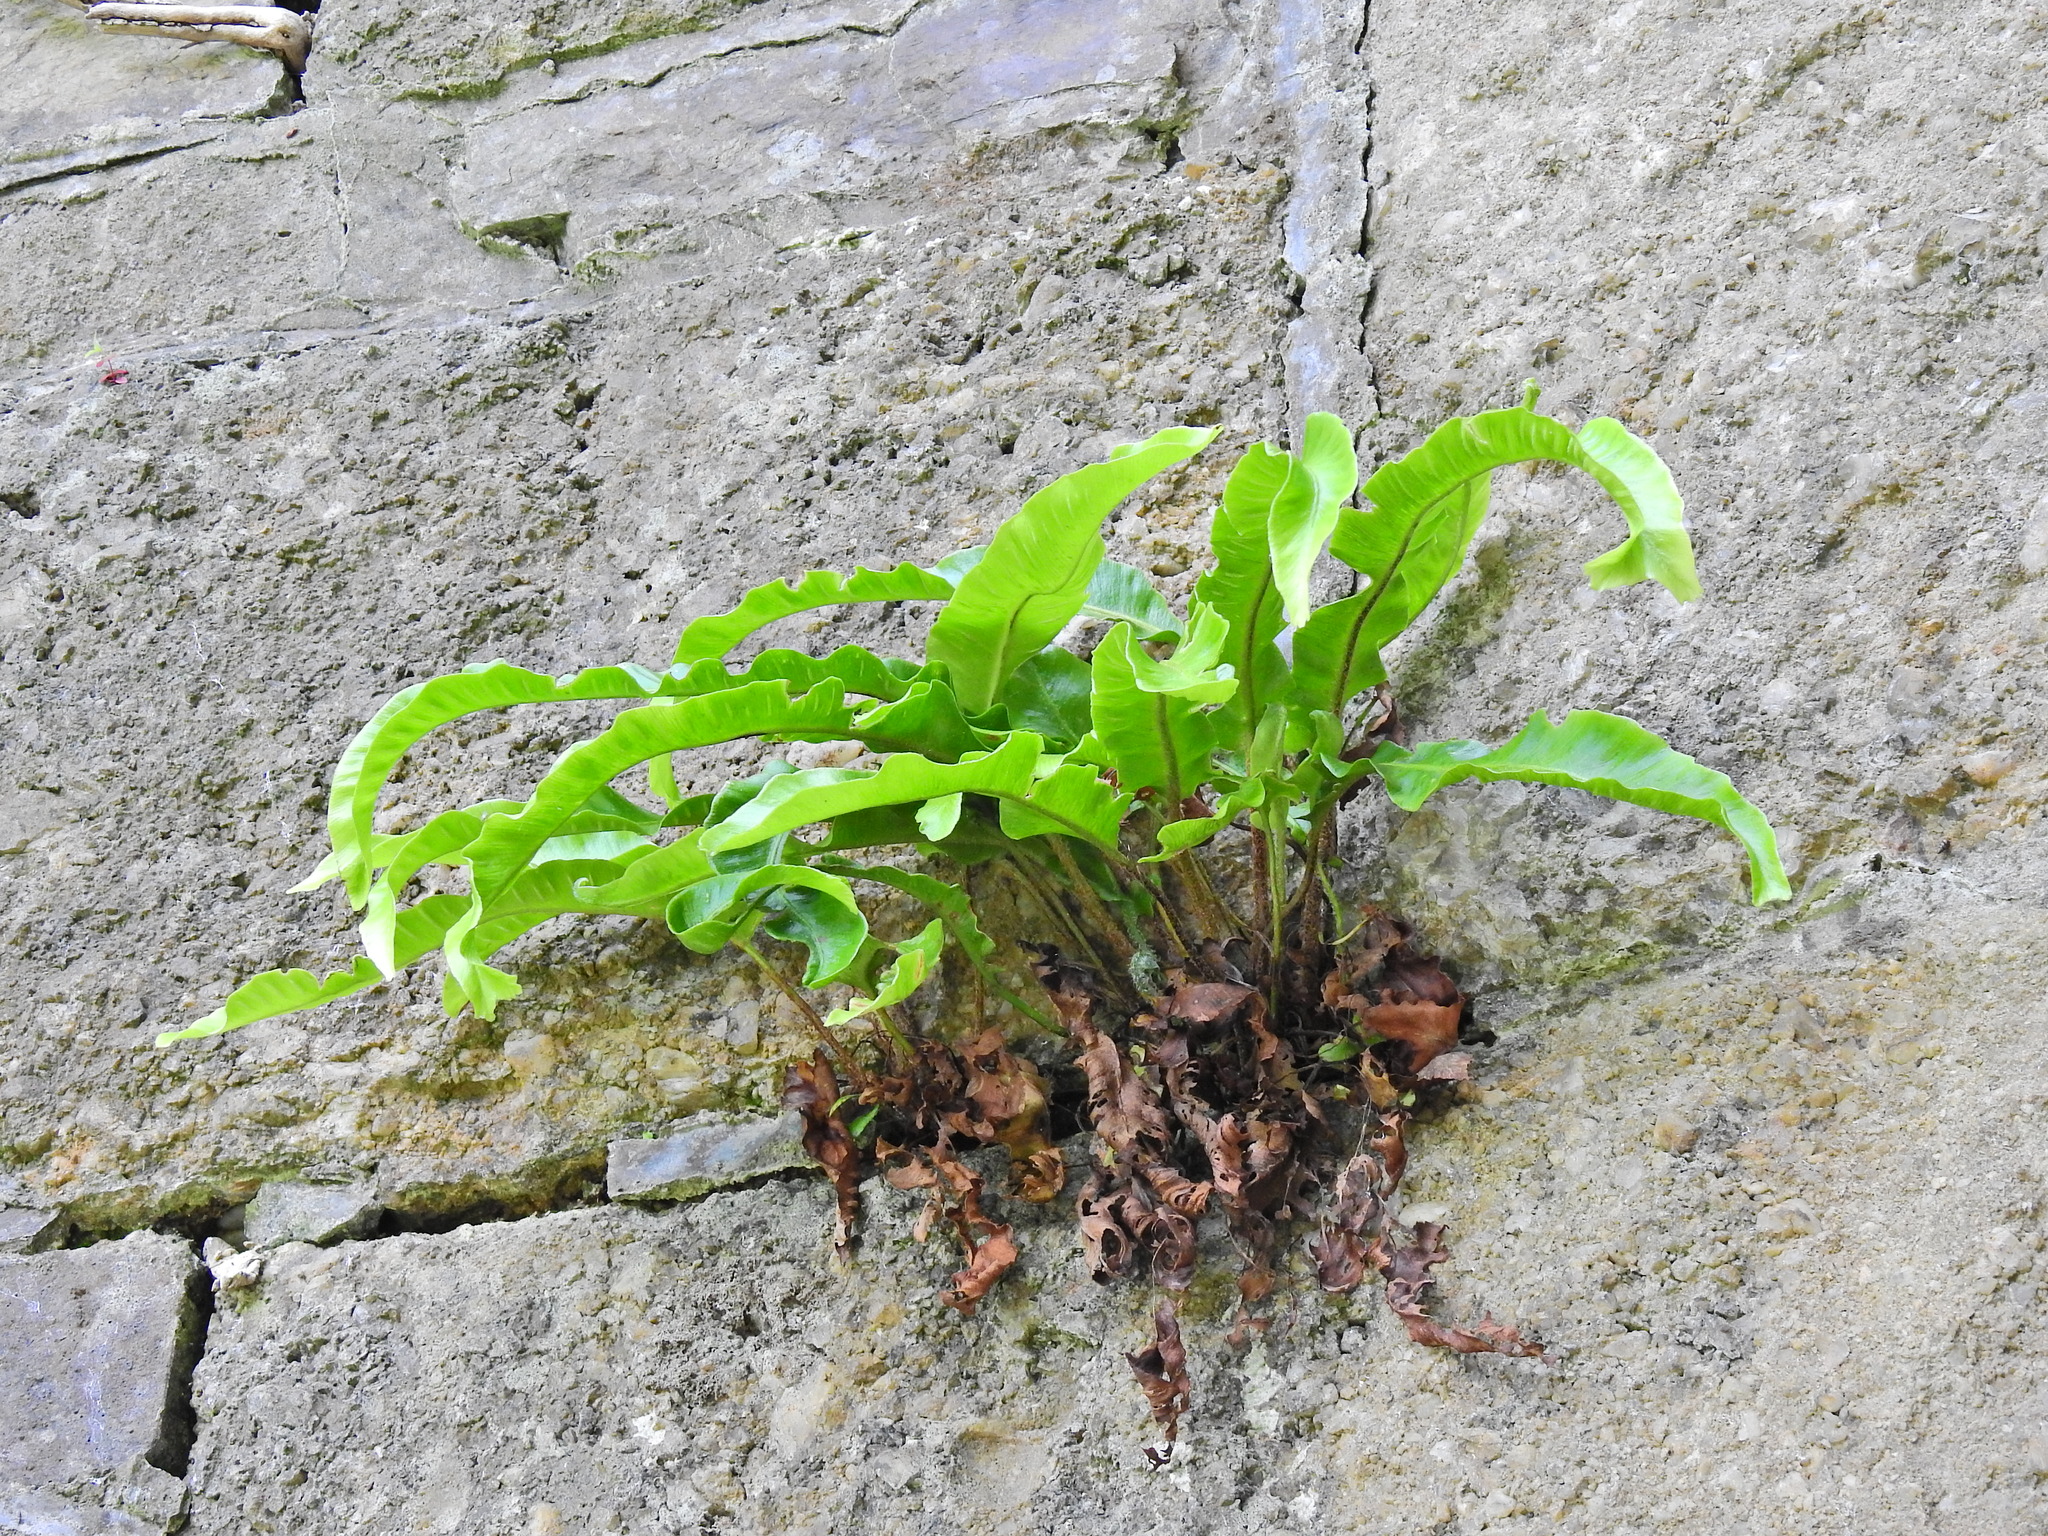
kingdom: Plantae
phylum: Tracheophyta
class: Polypodiopsida
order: Polypodiales
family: Aspleniaceae
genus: Asplenium
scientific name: Asplenium scolopendrium
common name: Hart's-tongue fern
